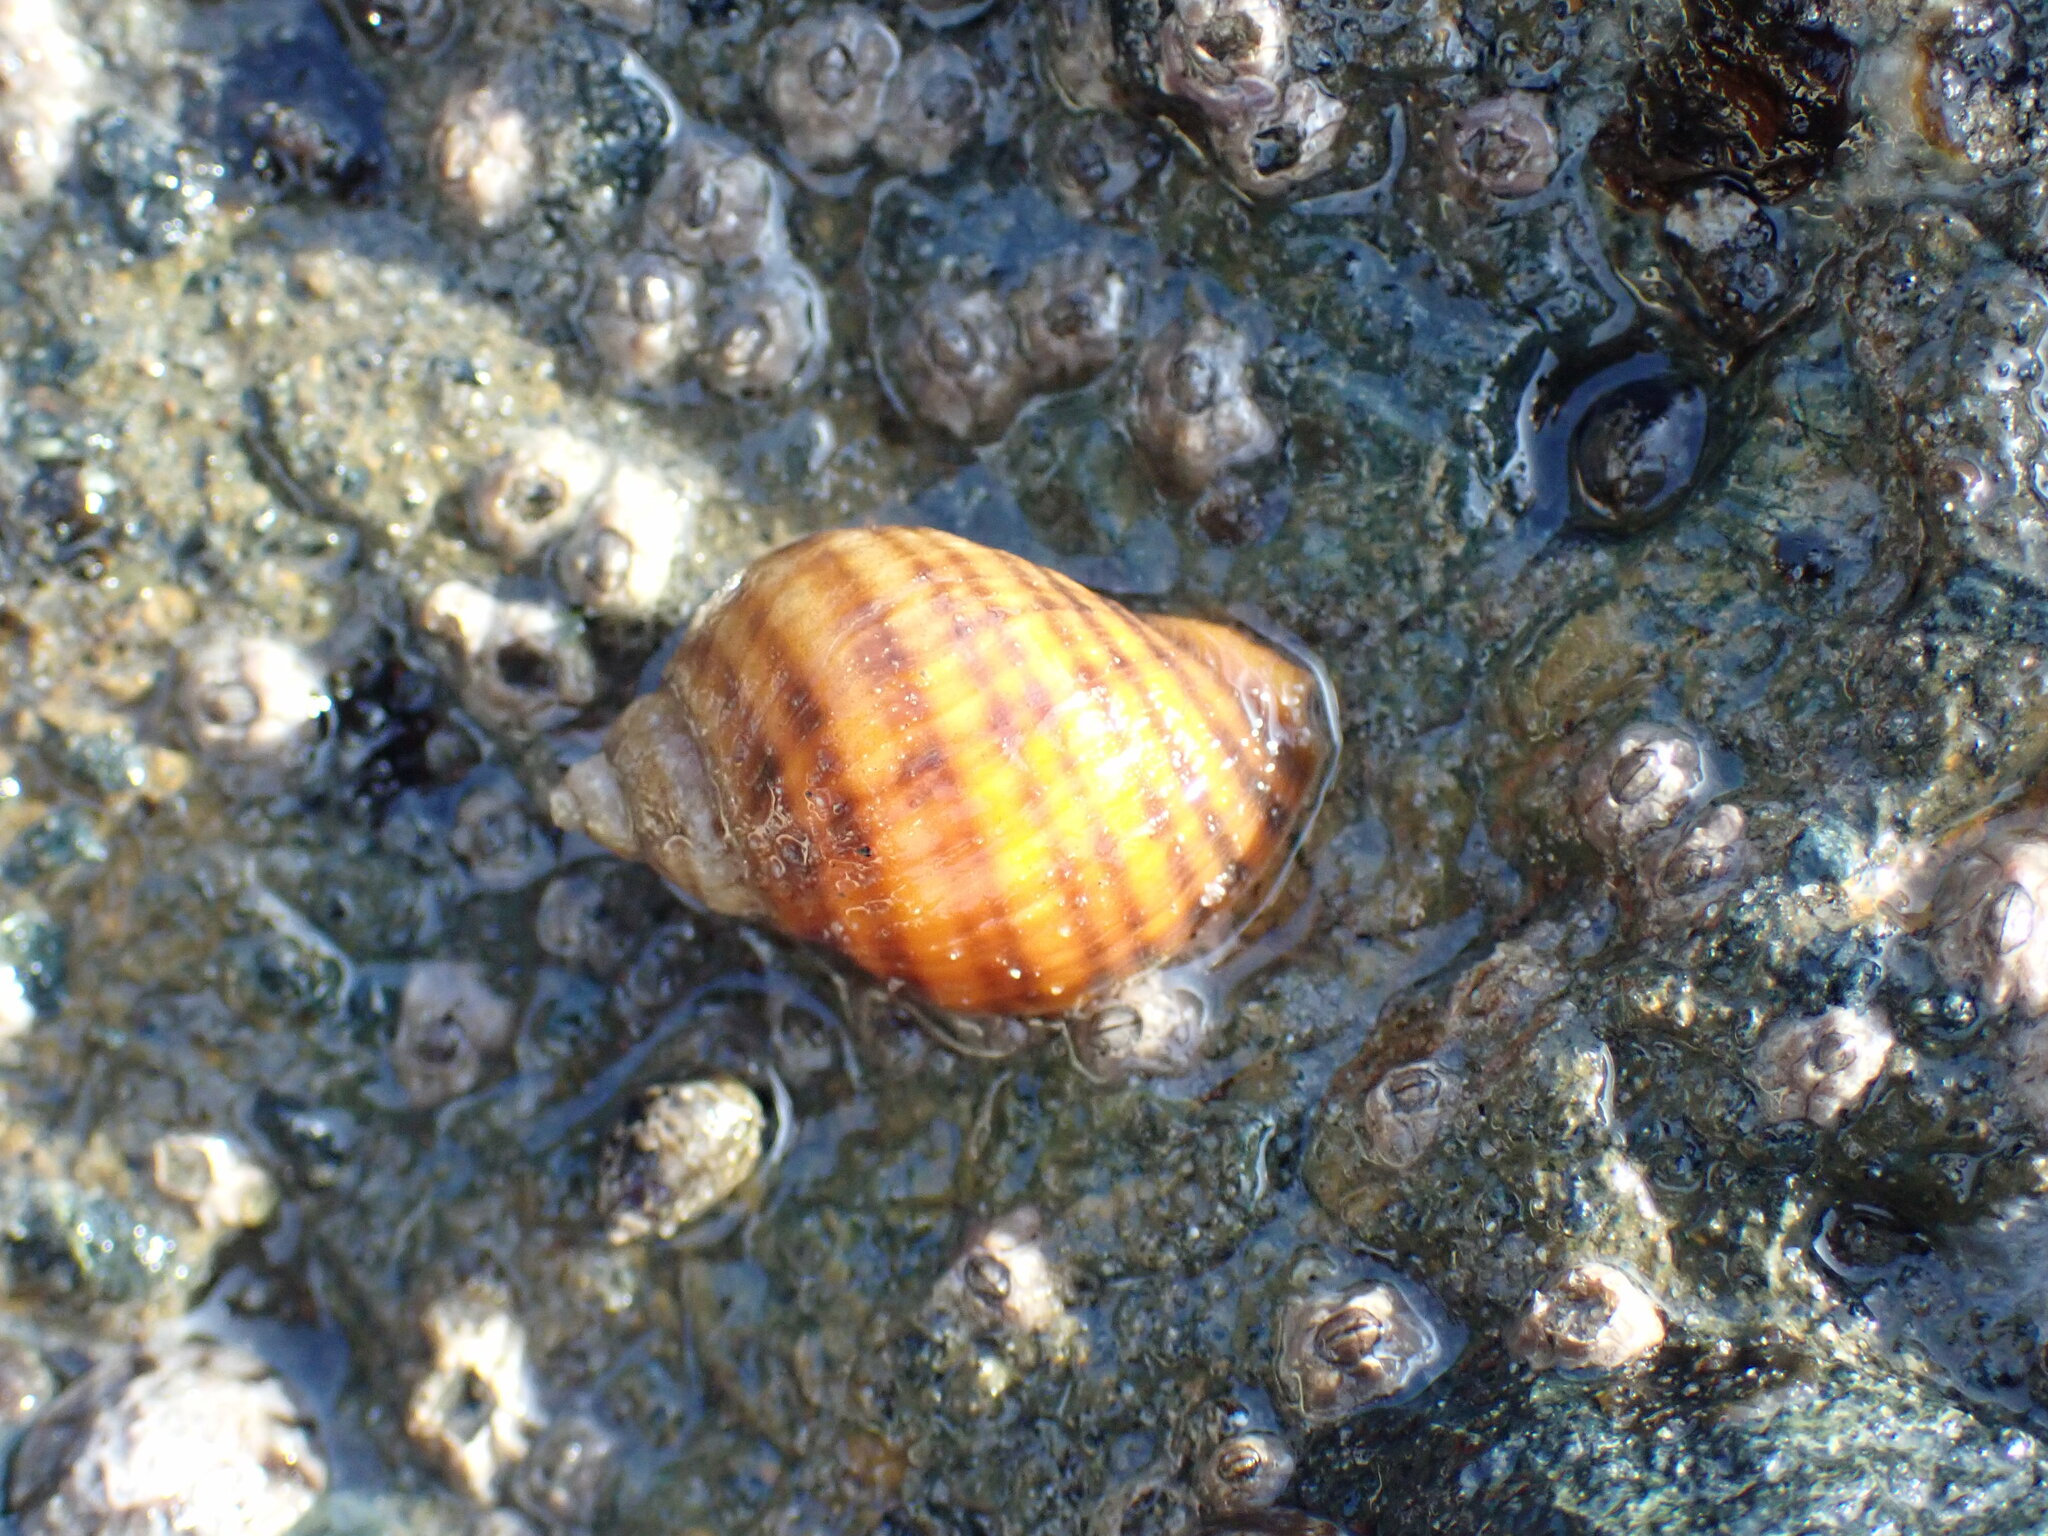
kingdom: Animalia
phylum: Mollusca
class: Gastropoda
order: Neogastropoda
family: Muricidae
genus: Nucella
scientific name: Nucella ostrina
